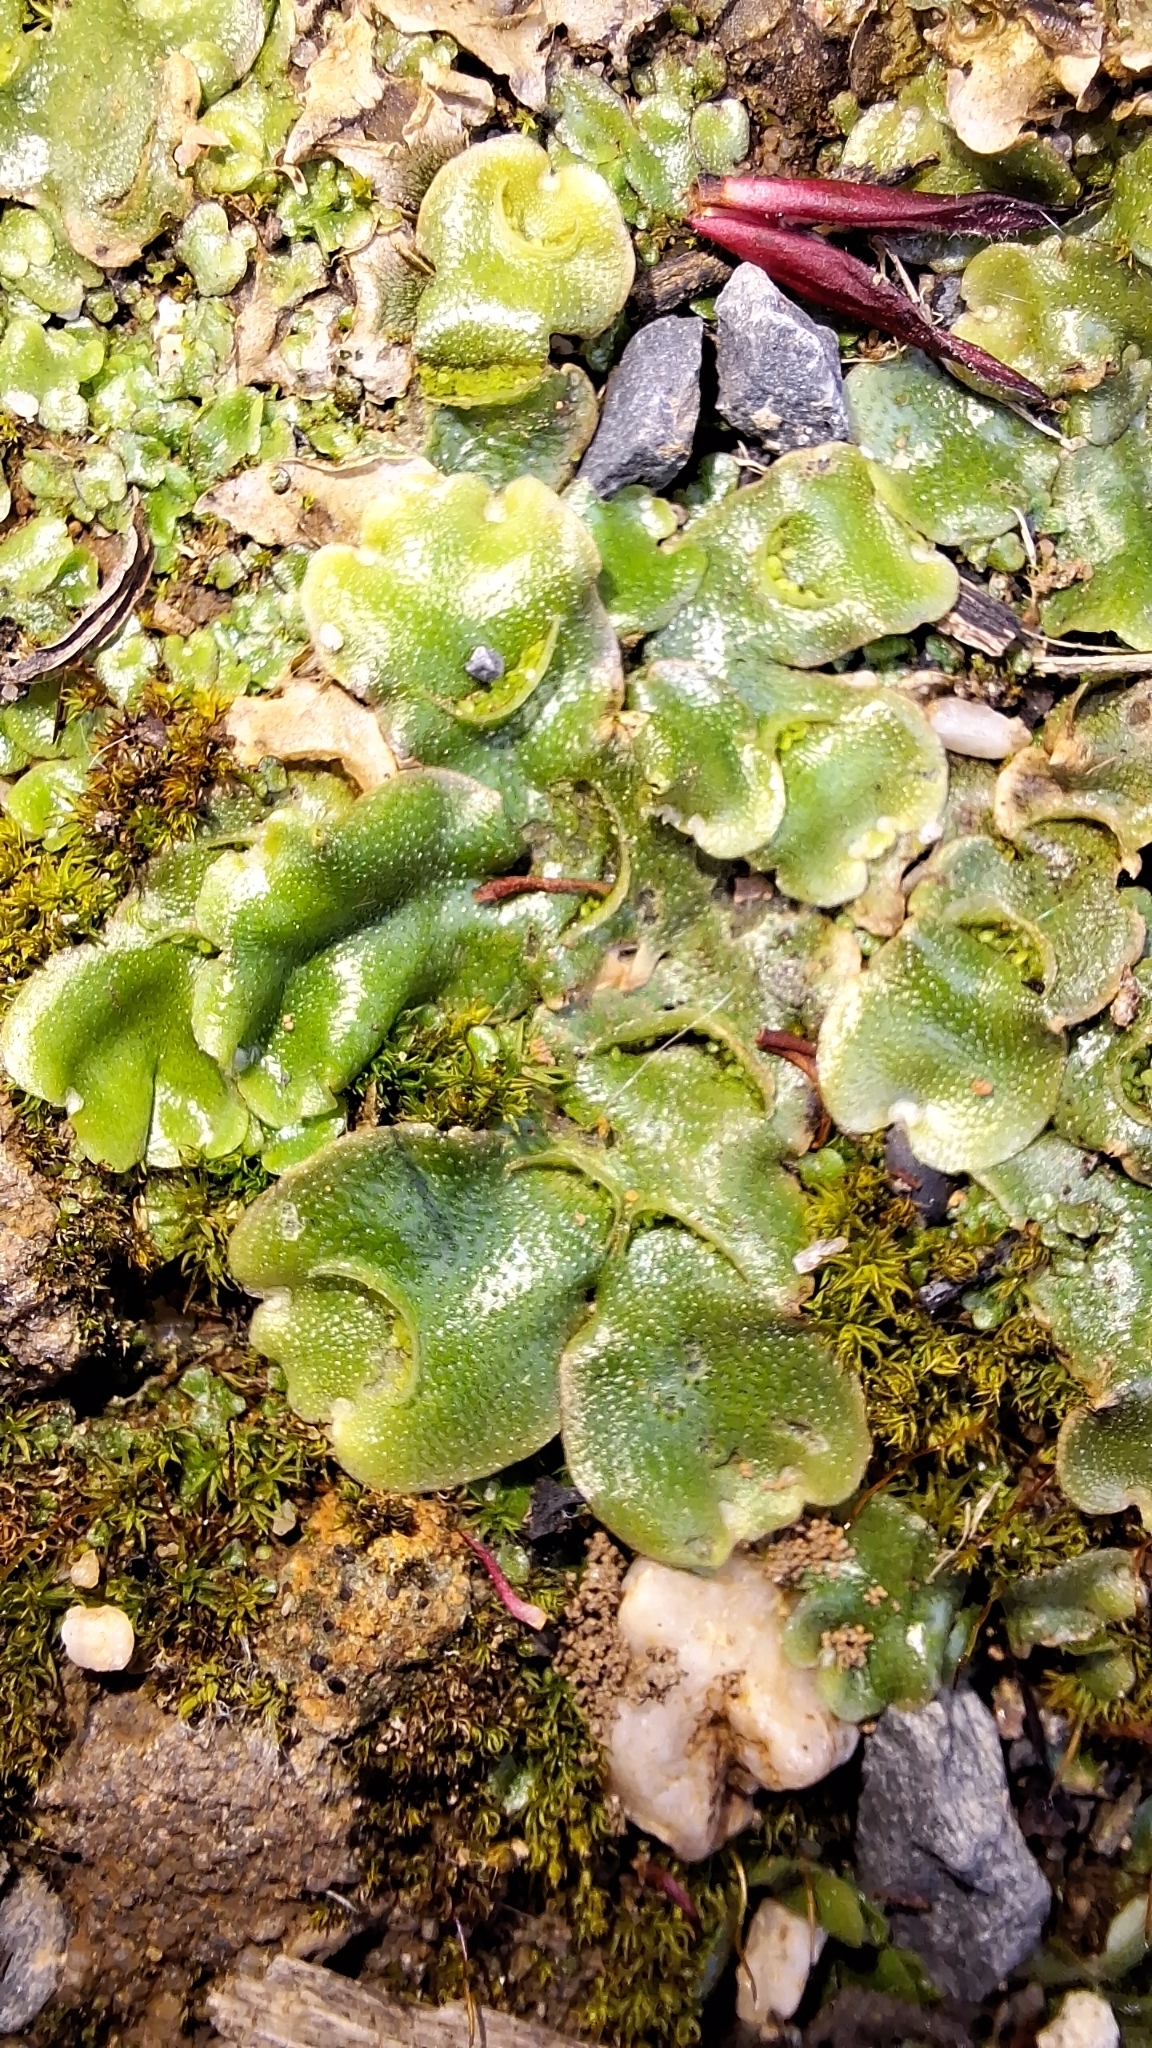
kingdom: Plantae
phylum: Marchantiophyta
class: Marchantiopsida
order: Lunulariales
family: Lunulariaceae
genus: Lunularia
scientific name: Lunularia cruciata
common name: Crescent-cup liverwort
